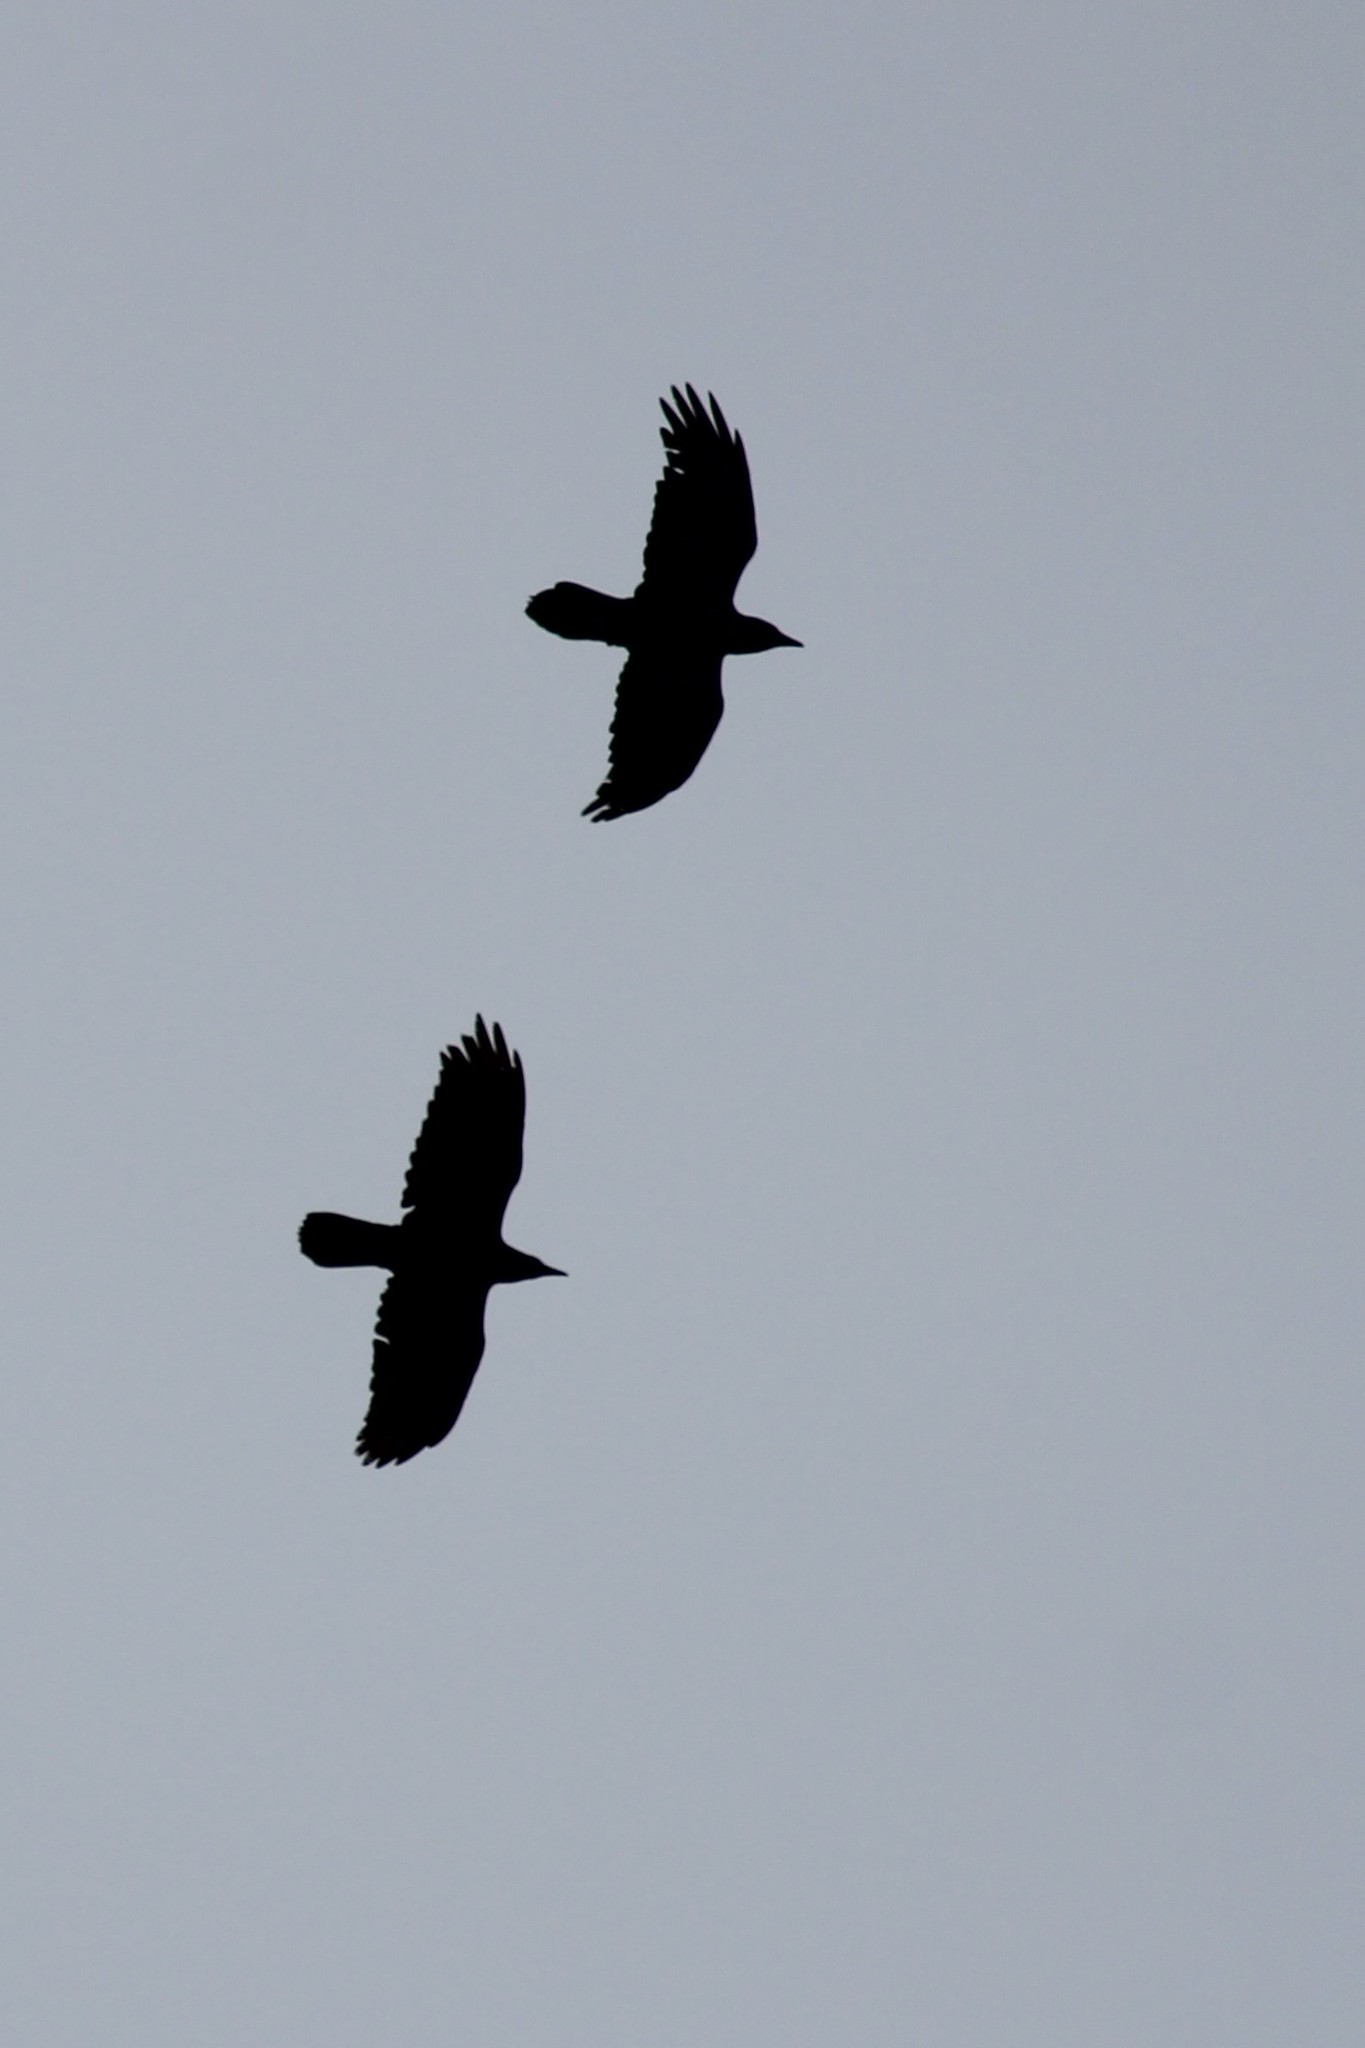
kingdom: Animalia
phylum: Chordata
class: Aves
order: Passeriformes
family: Corvidae
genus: Corvus
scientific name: Corvus corax
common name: Common raven
